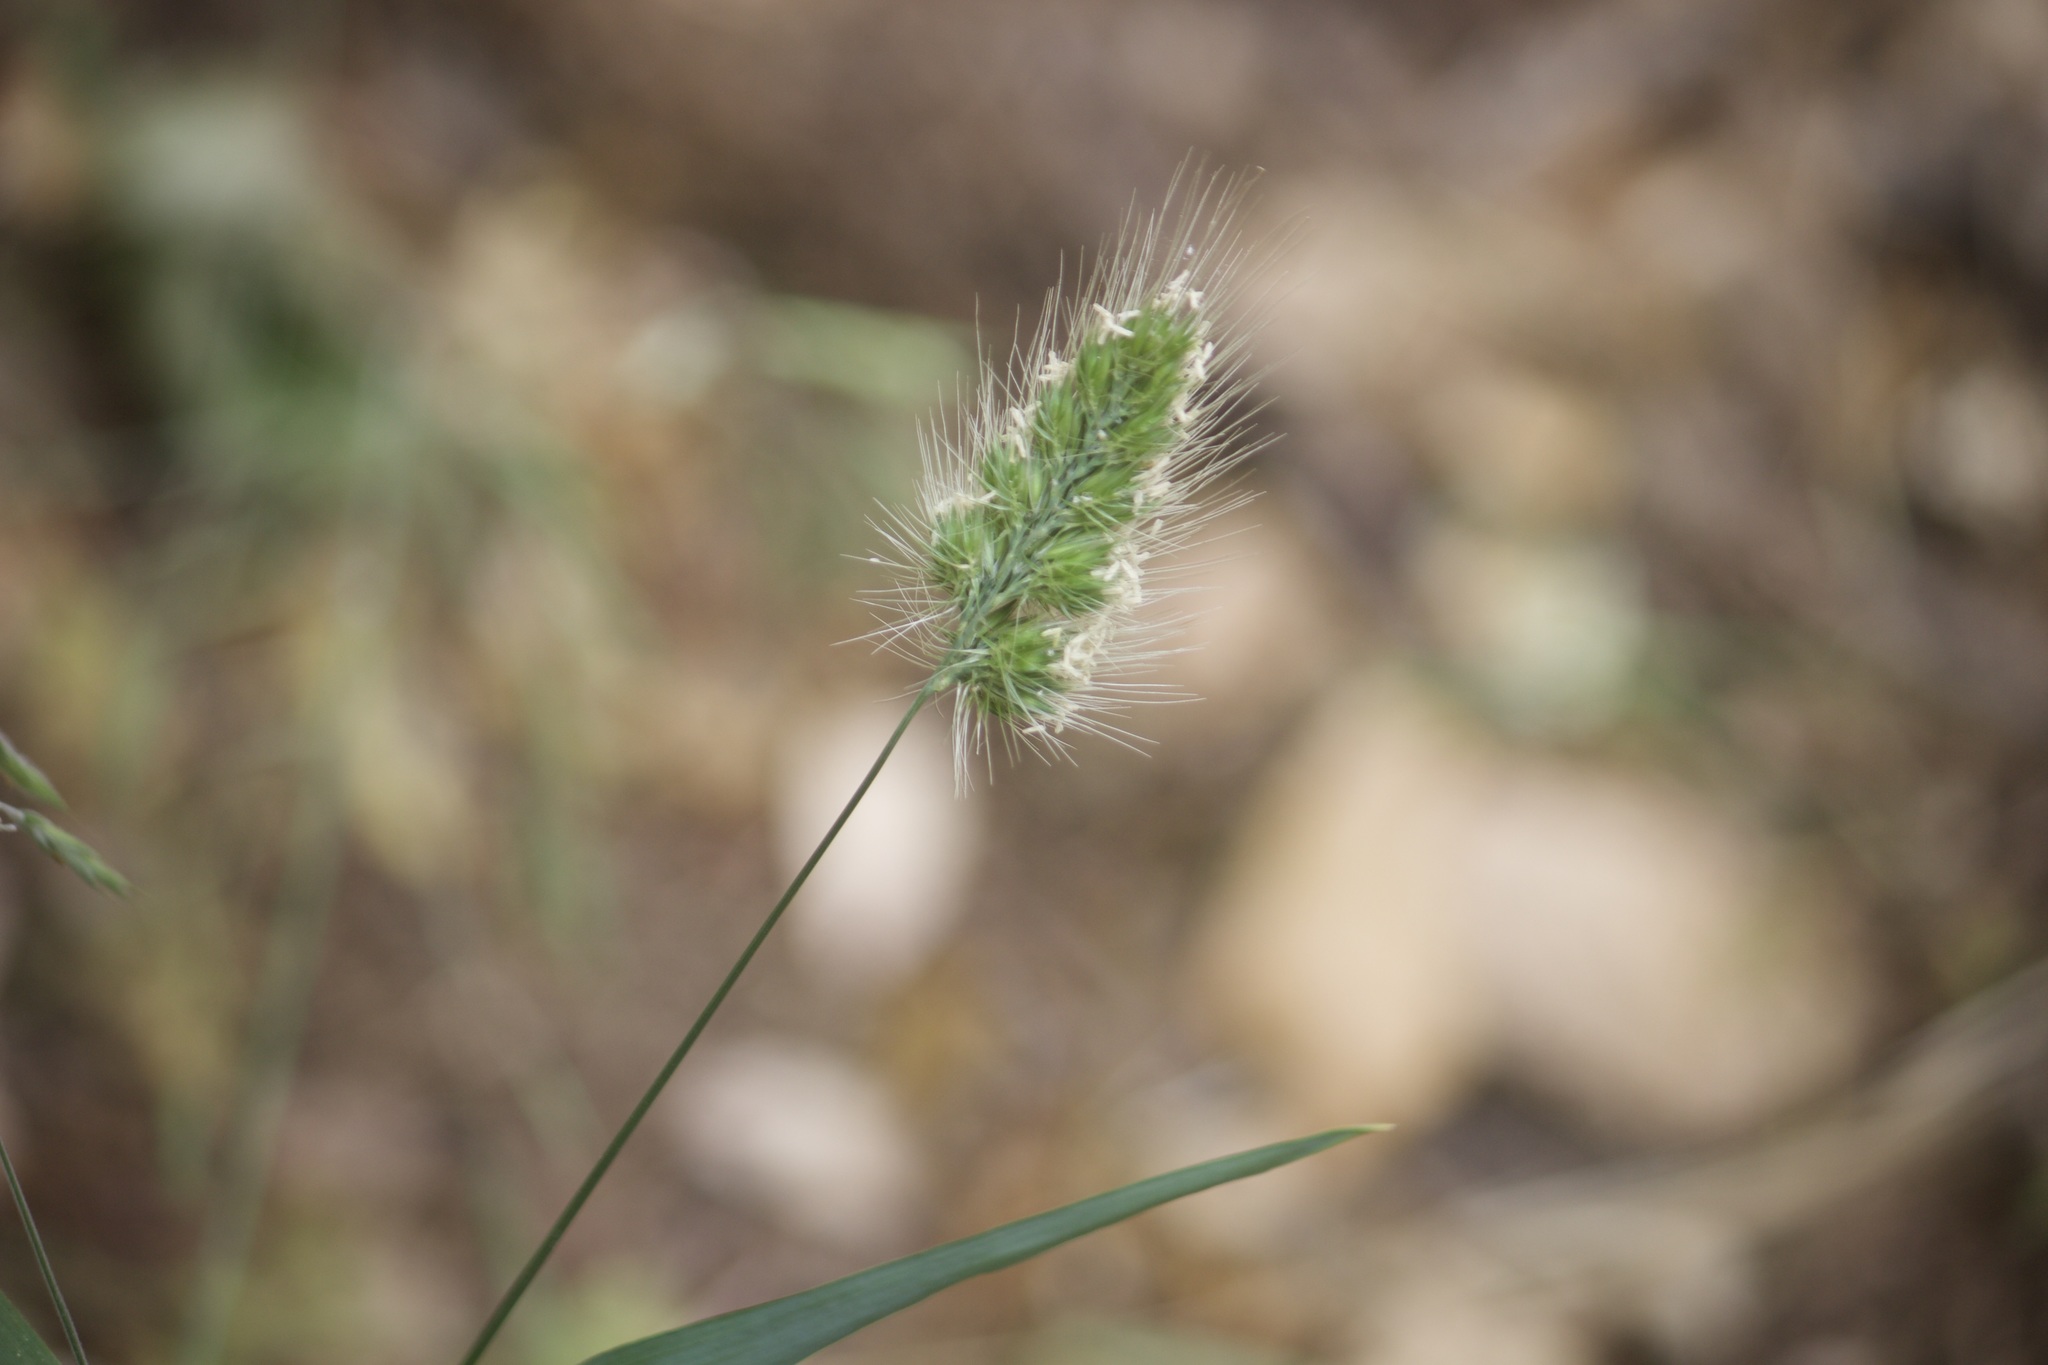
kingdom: Plantae
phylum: Tracheophyta
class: Liliopsida
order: Poales
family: Poaceae
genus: Cynosurus
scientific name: Cynosurus echinatus
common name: Rough dog's-tail
